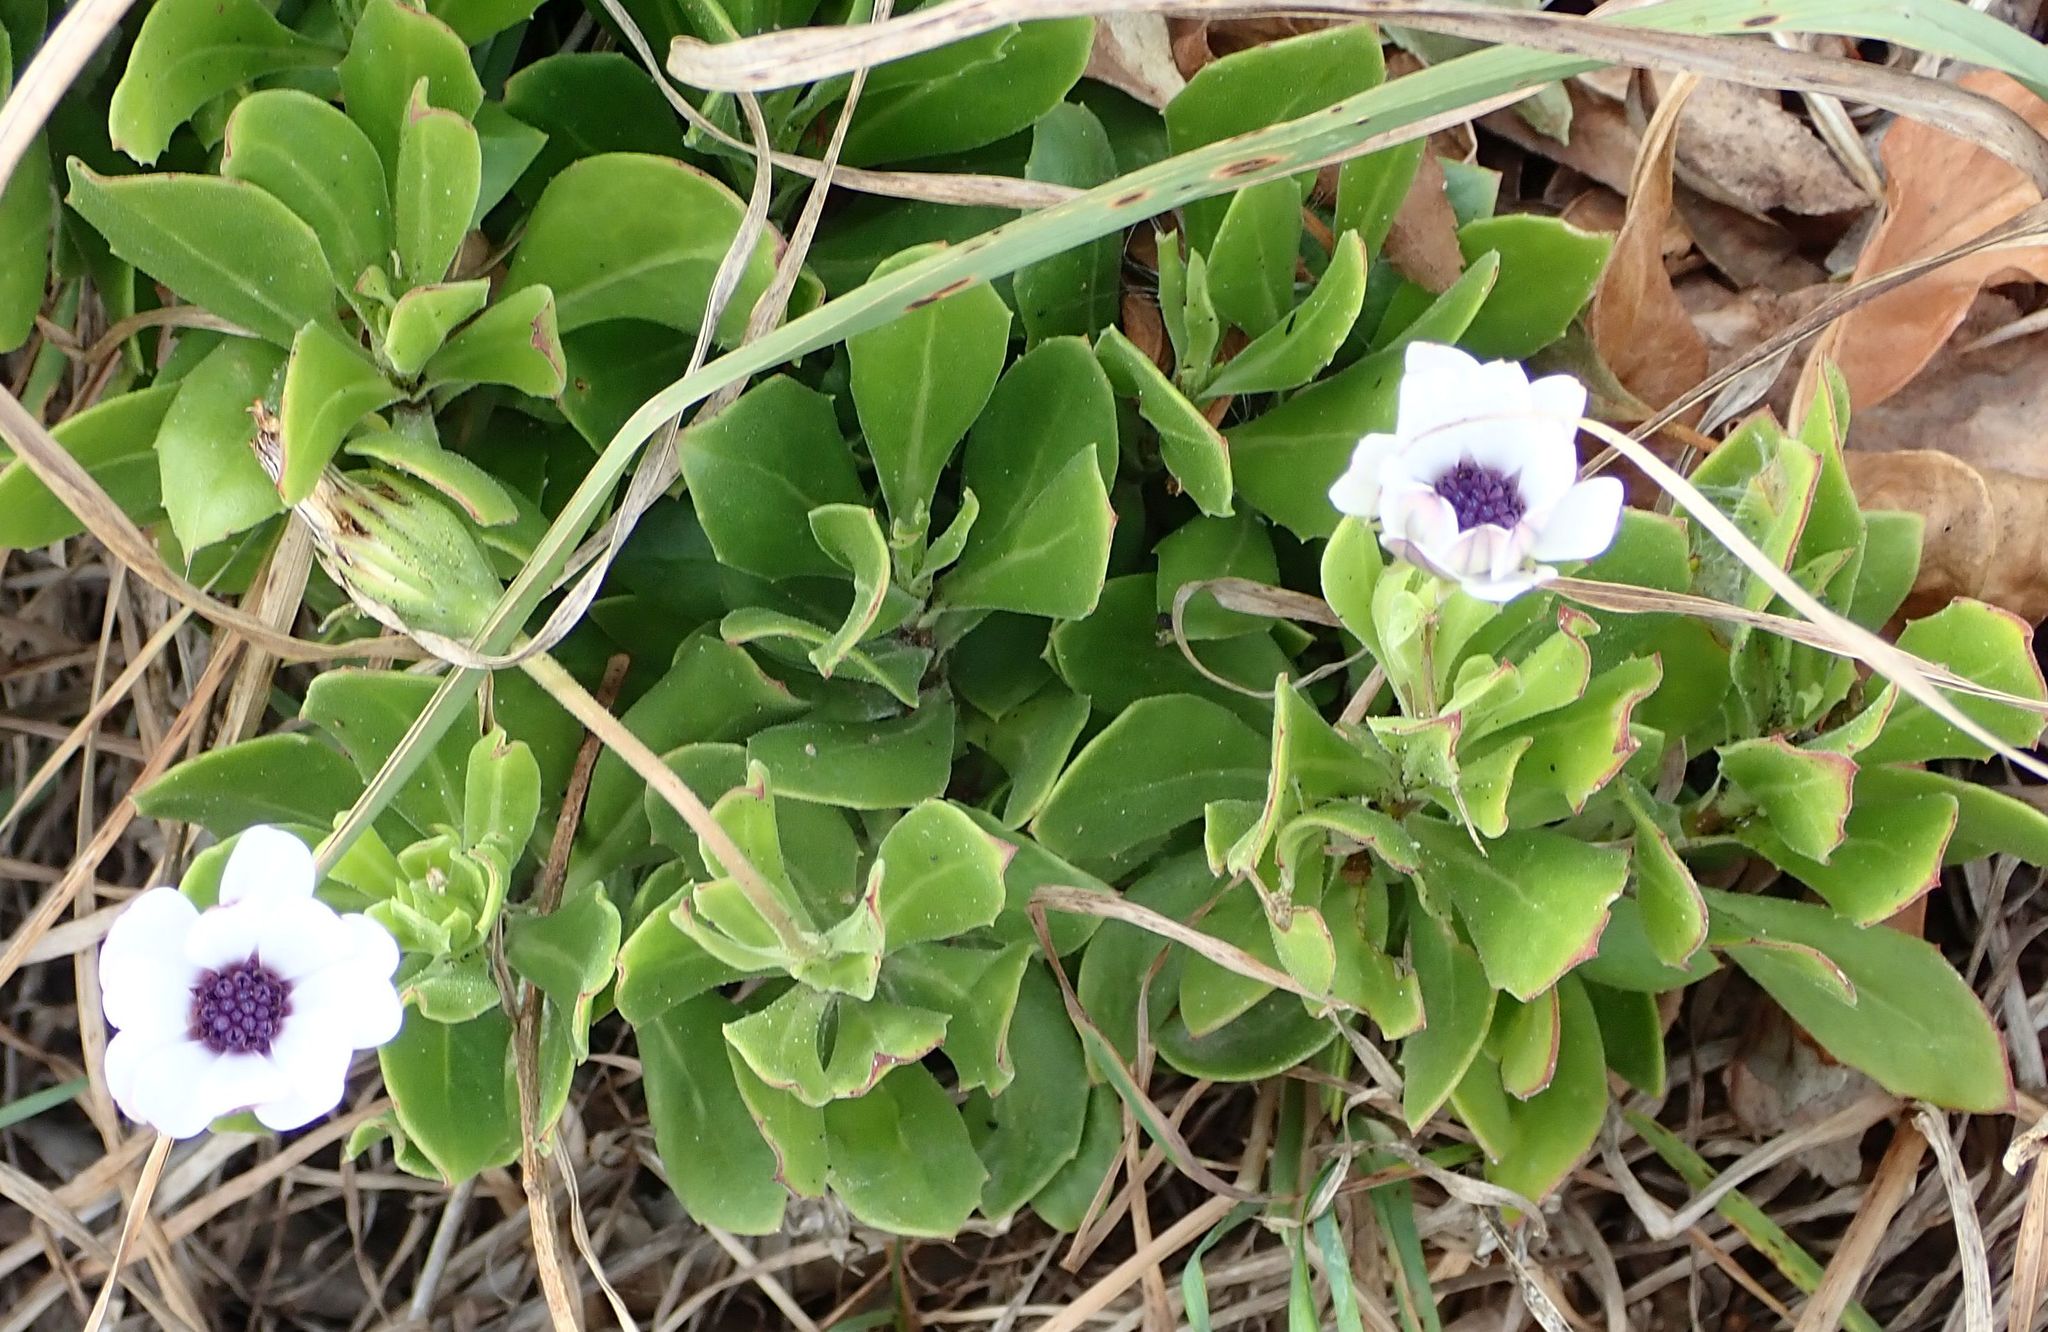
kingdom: Plantae
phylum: Tracheophyta
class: Magnoliopsida
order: Asterales
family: Asteraceae
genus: Dimorphotheca
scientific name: Dimorphotheca fruticosa
